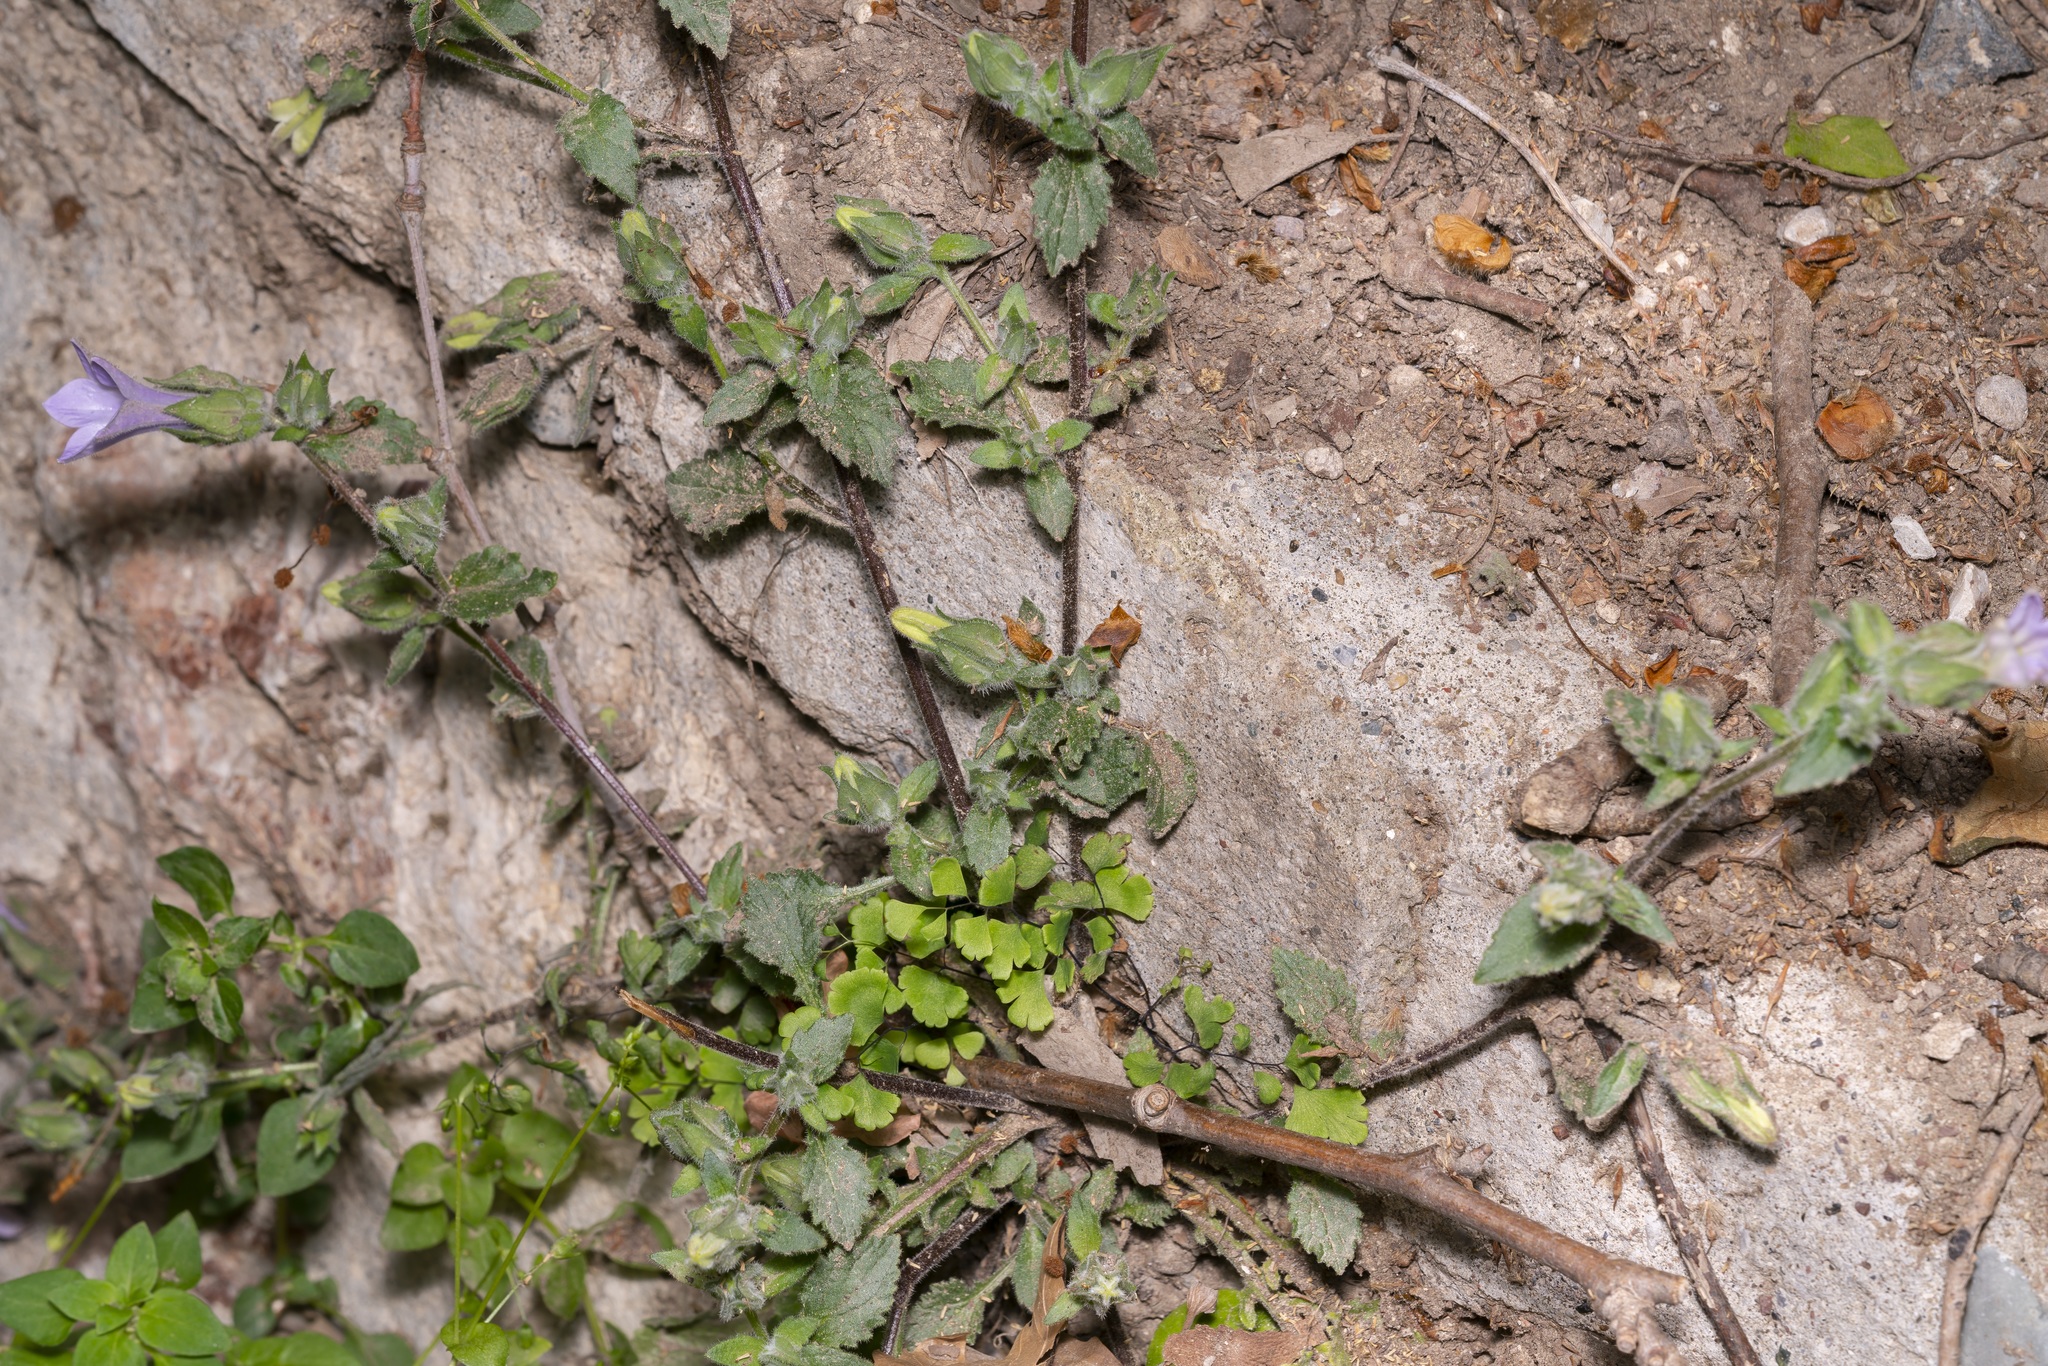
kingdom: Plantae
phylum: Tracheophyta
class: Magnoliopsida
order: Asterales
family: Campanulaceae
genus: Campanula
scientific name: Campanula hagielia
